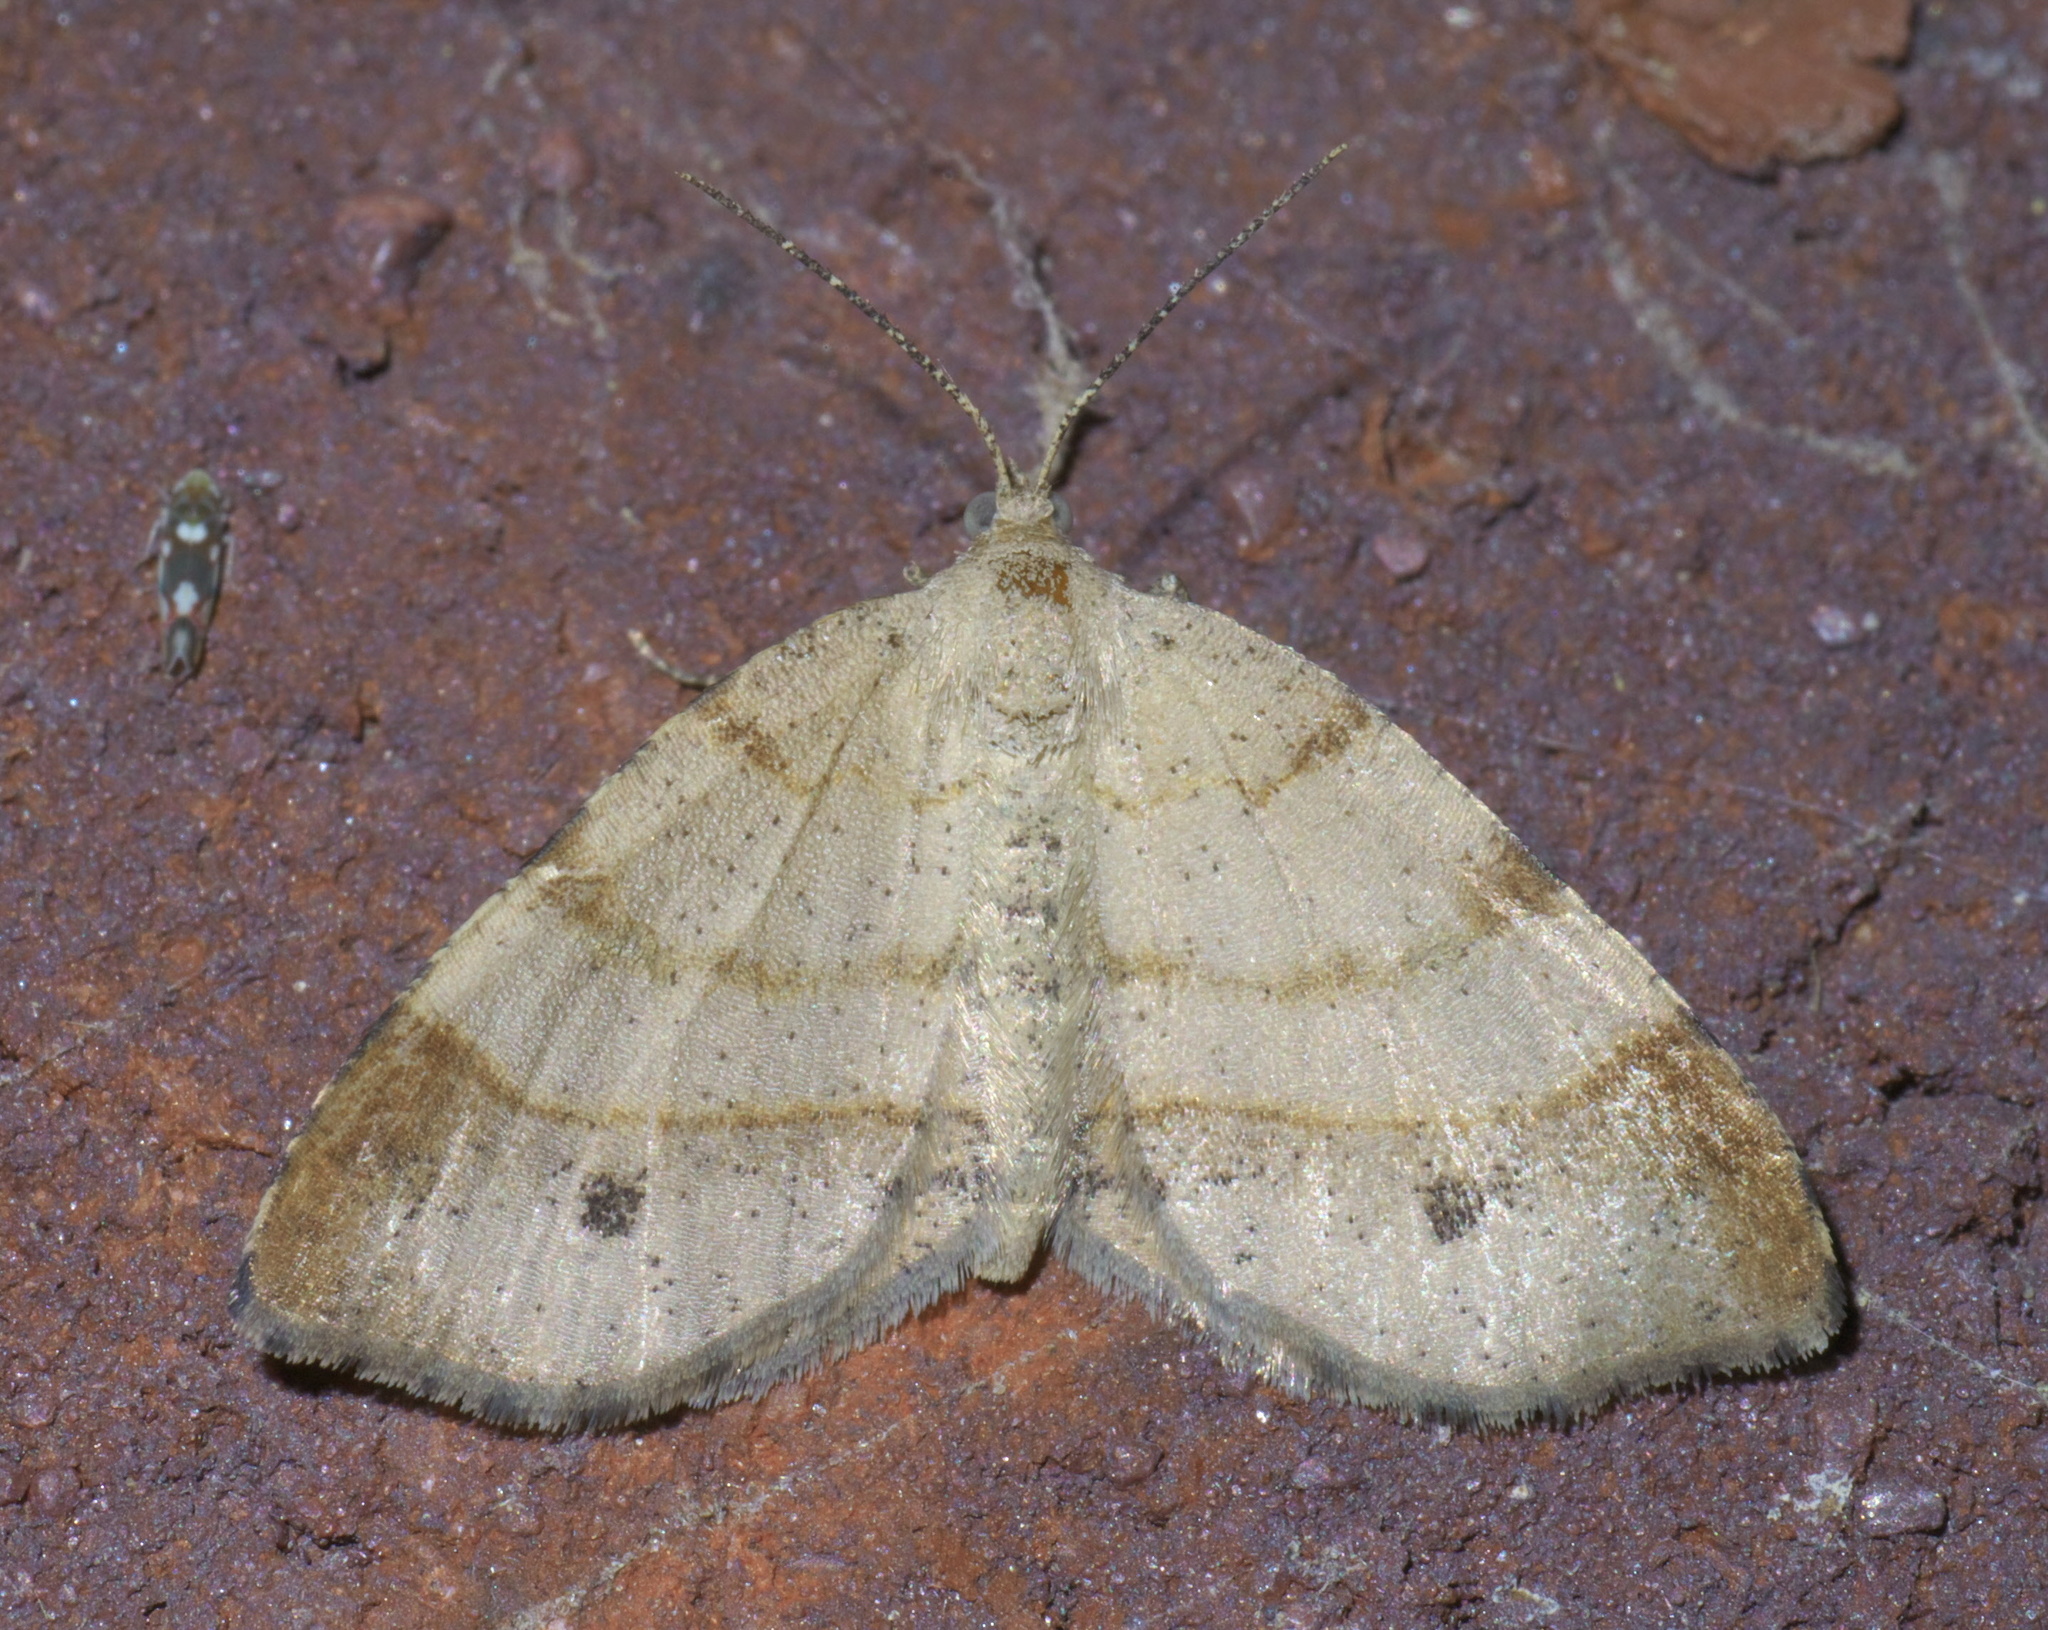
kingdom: Animalia
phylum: Arthropoda
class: Insecta
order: Lepidoptera
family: Geometridae
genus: Mellilla
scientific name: Mellilla xanthometata
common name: Orange wing moth
